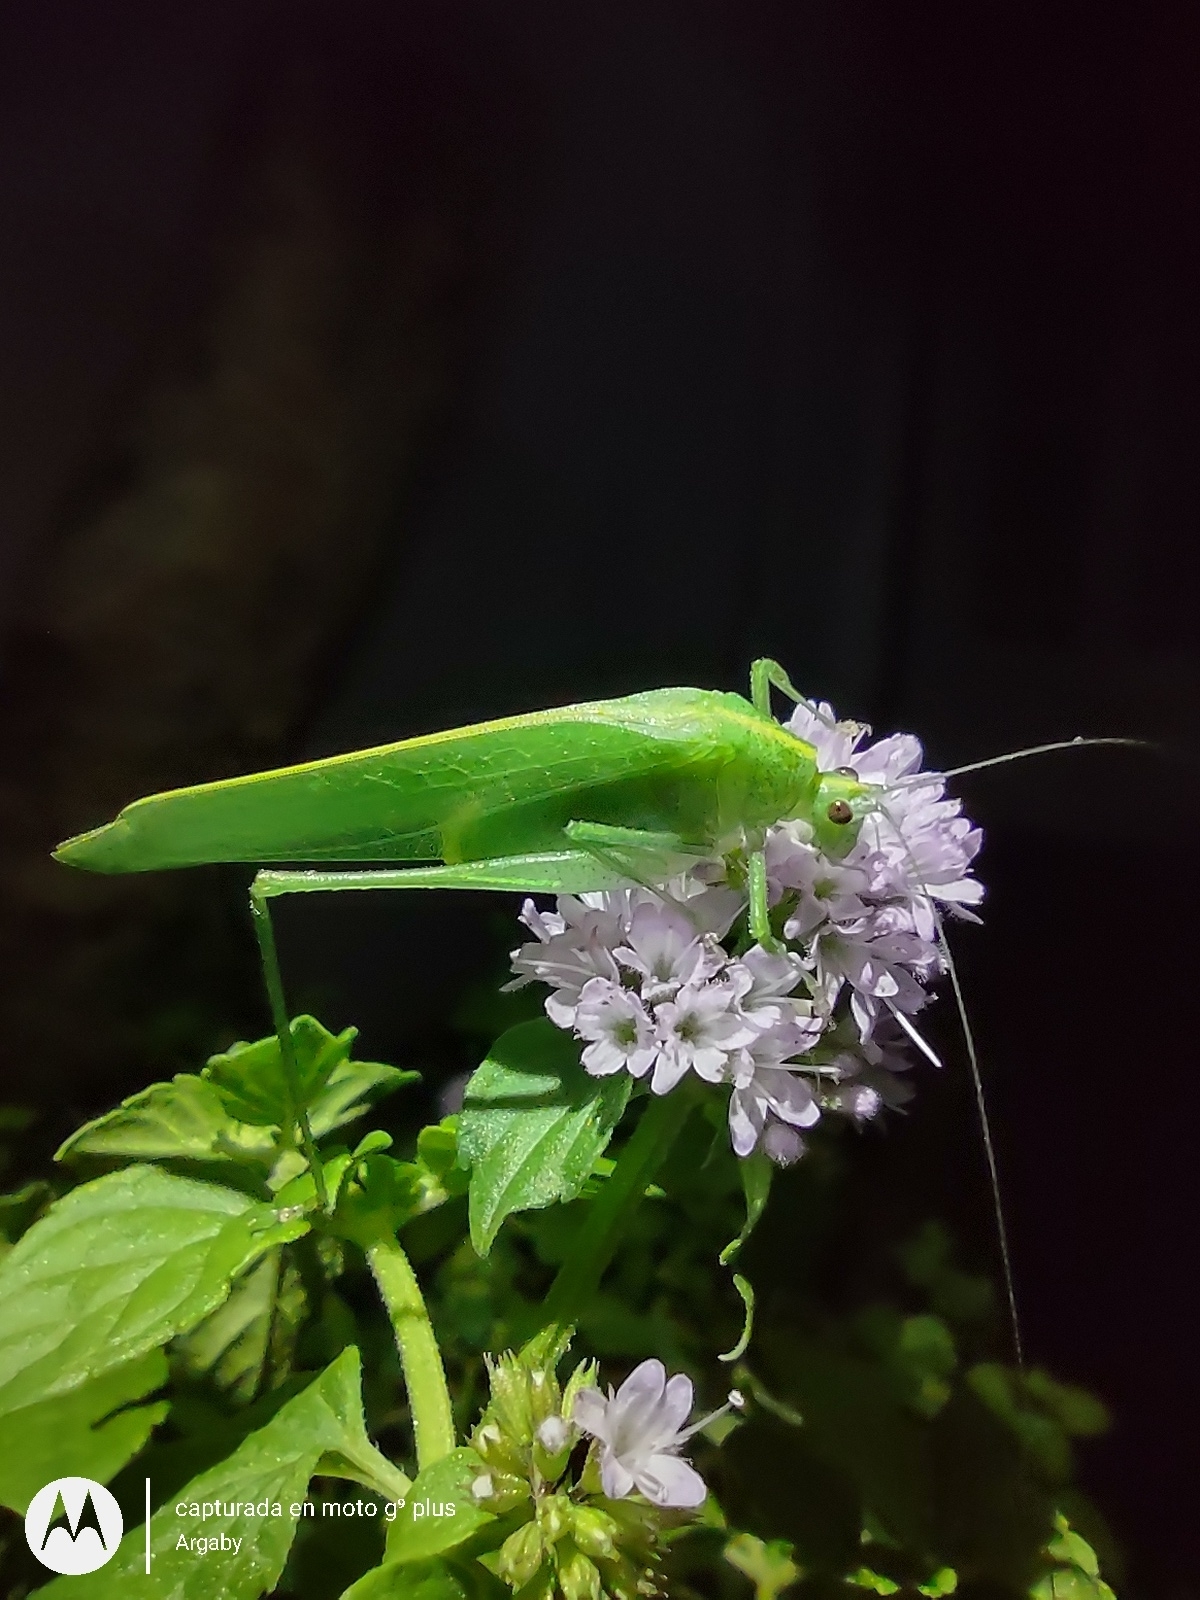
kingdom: Animalia
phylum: Arthropoda
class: Insecta
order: Orthoptera
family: Tettigoniidae
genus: Grammadera
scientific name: Grammadera clara
